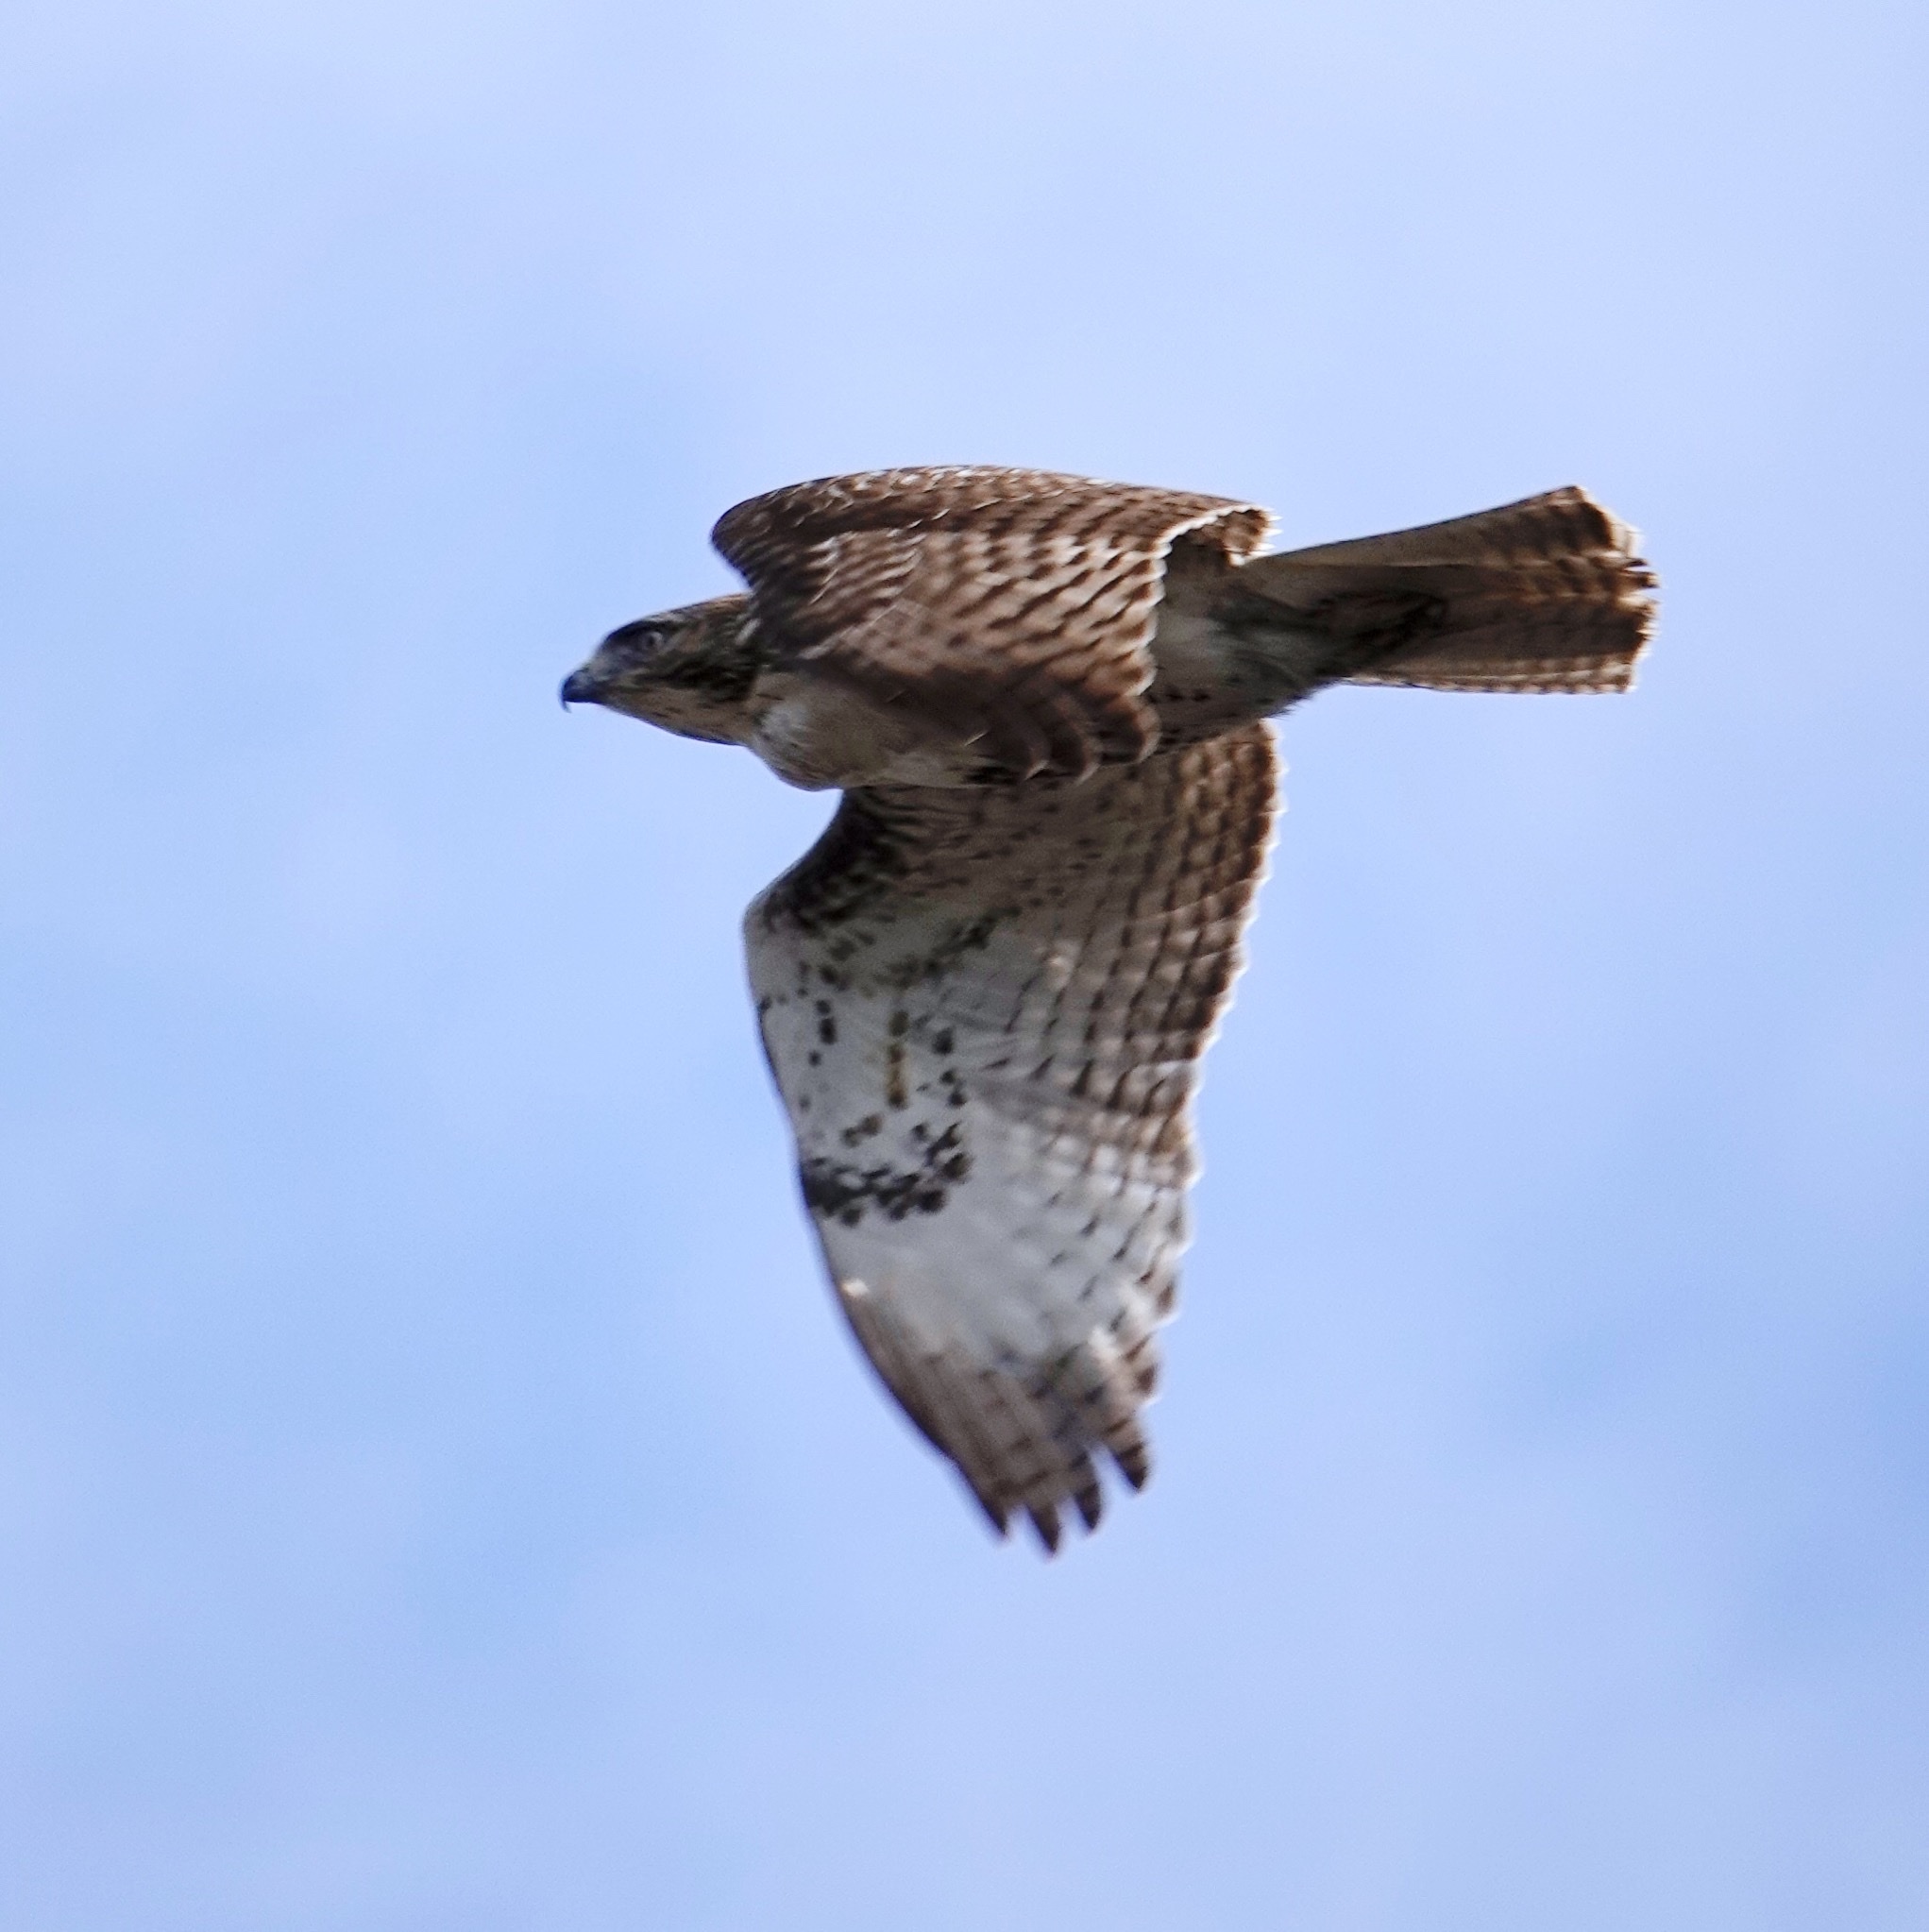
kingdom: Animalia
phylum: Chordata
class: Aves
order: Accipitriformes
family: Accipitridae
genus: Buteo
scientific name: Buteo jamaicensis
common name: Red-tailed hawk
